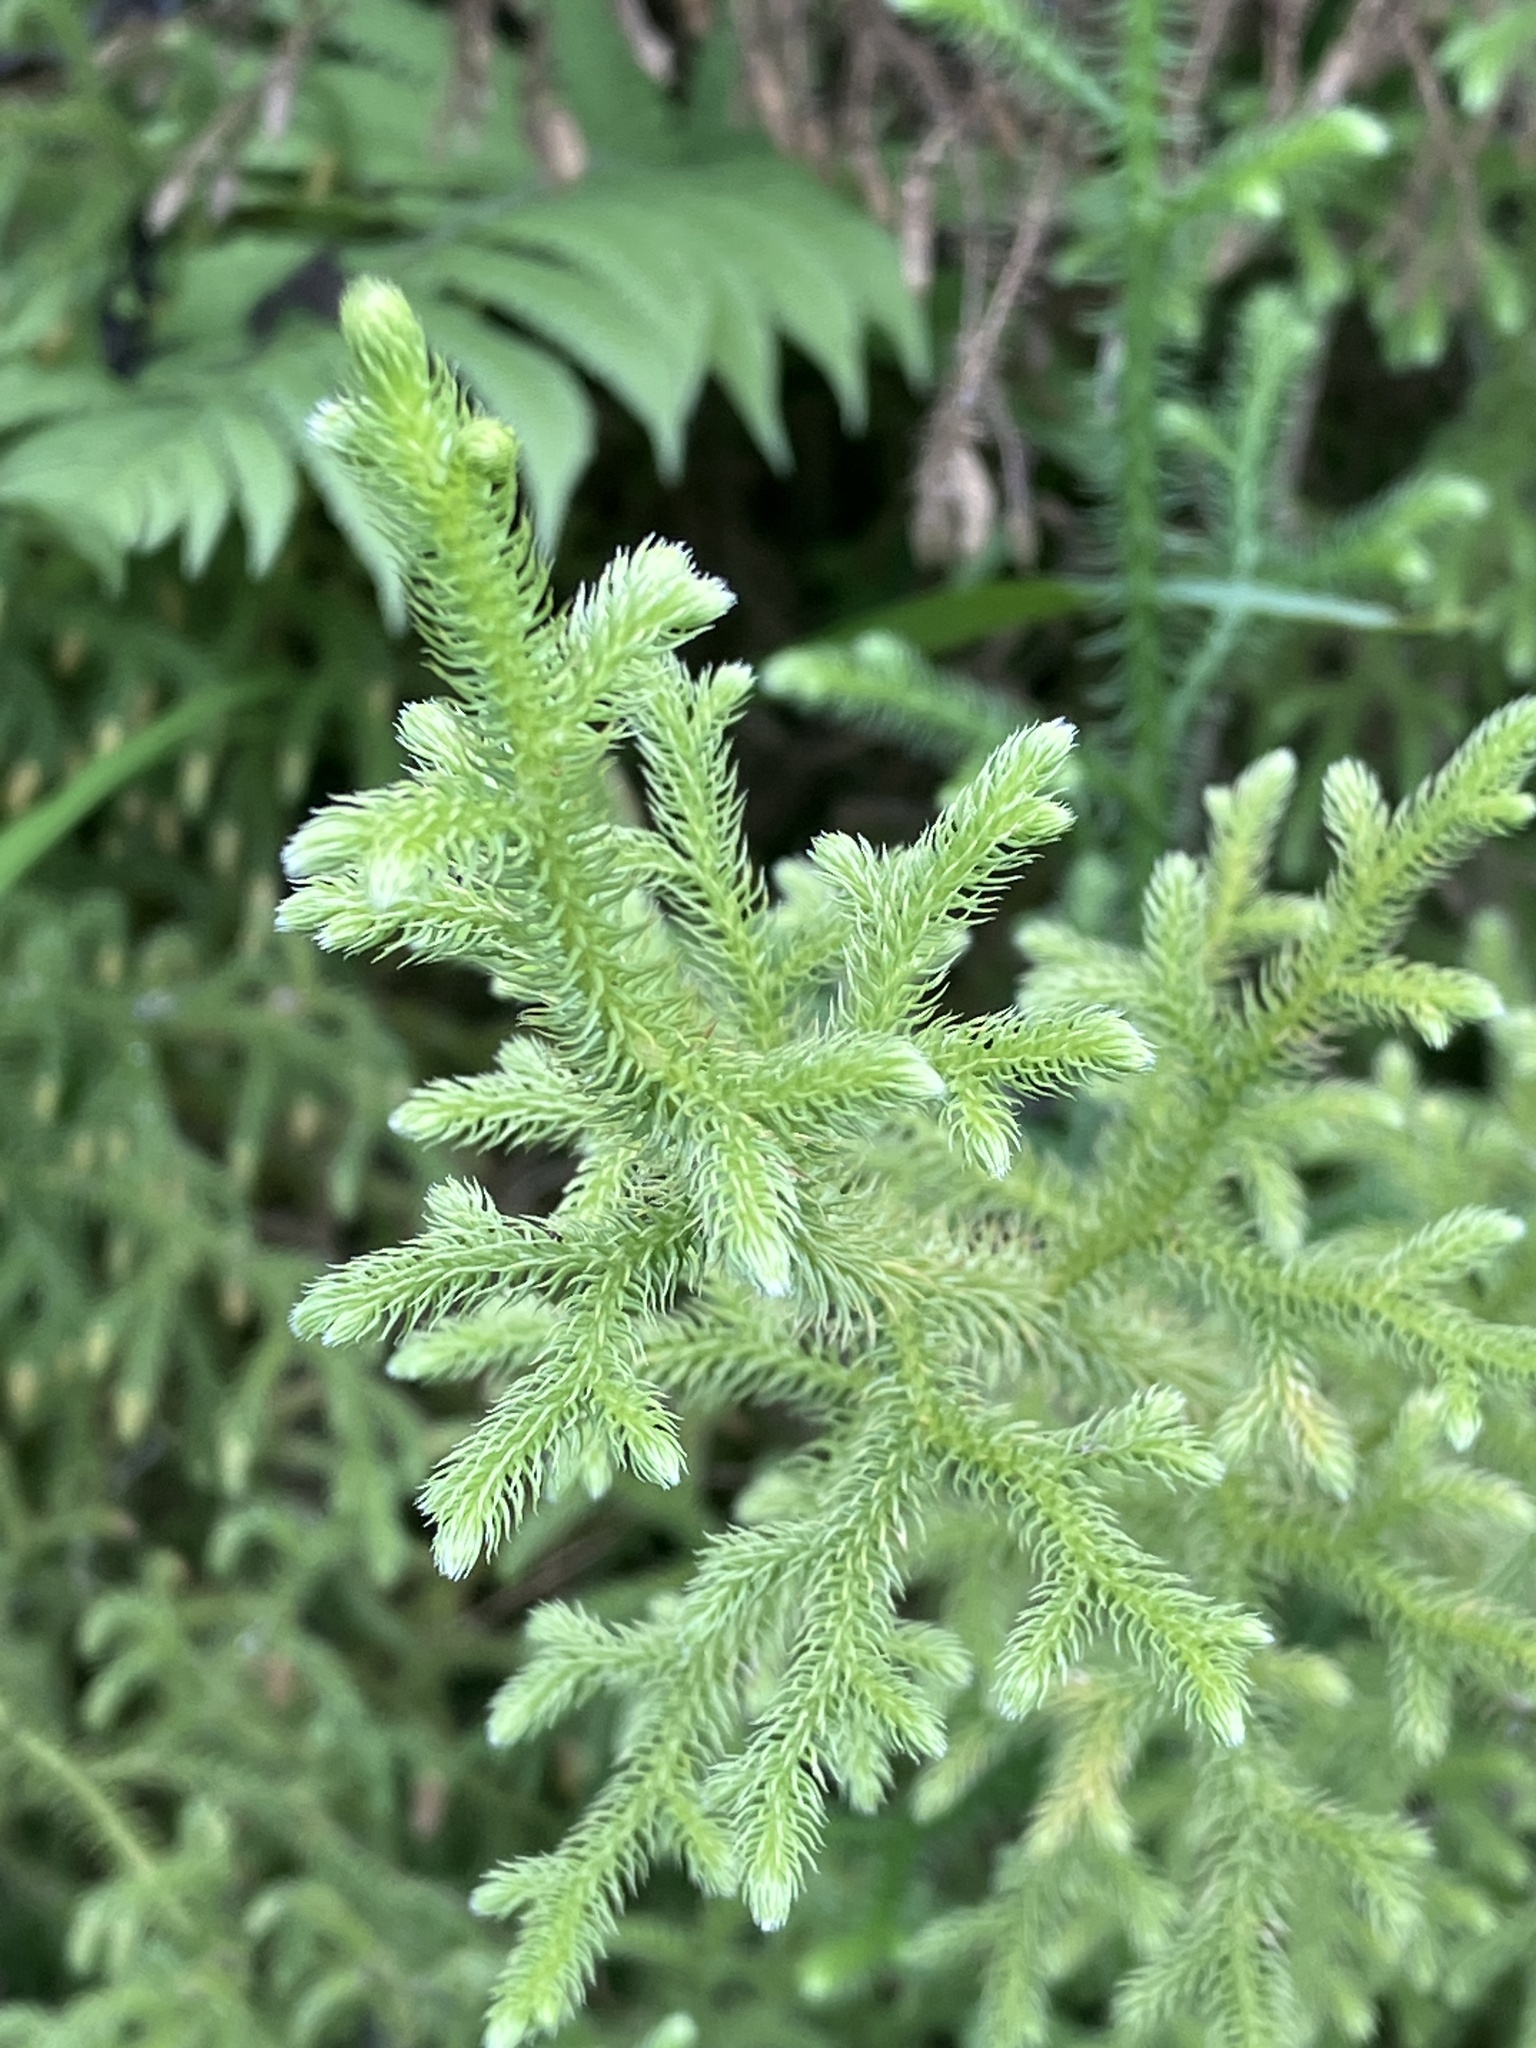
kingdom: Plantae
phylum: Tracheophyta
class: Lycopodiopsida
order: Lycopodiales
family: Lycopodiaceae
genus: Palhinhaea
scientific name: Palhinhaea cernua
